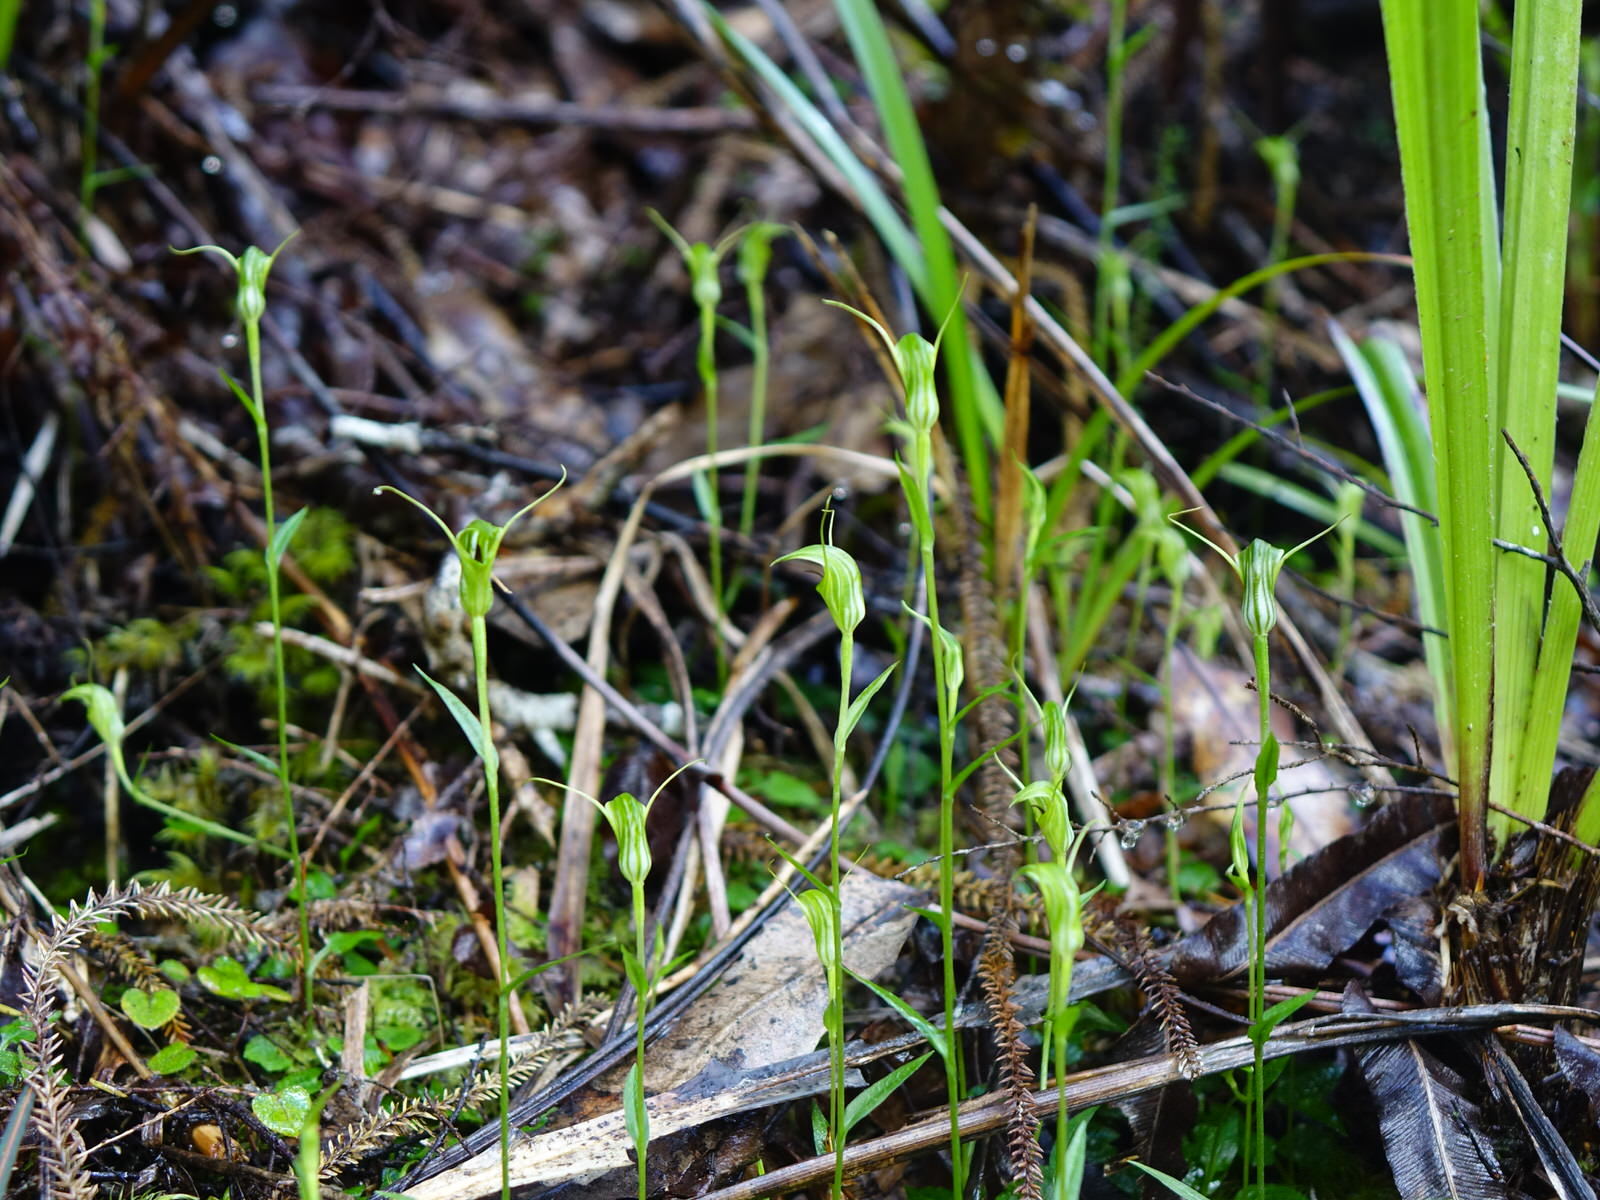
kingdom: Plantae
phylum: Tracheophyta
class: Liliopsida
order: Asparagales
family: Orchidaceae
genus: Pterostylis
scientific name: Pterostylis trullifolia
